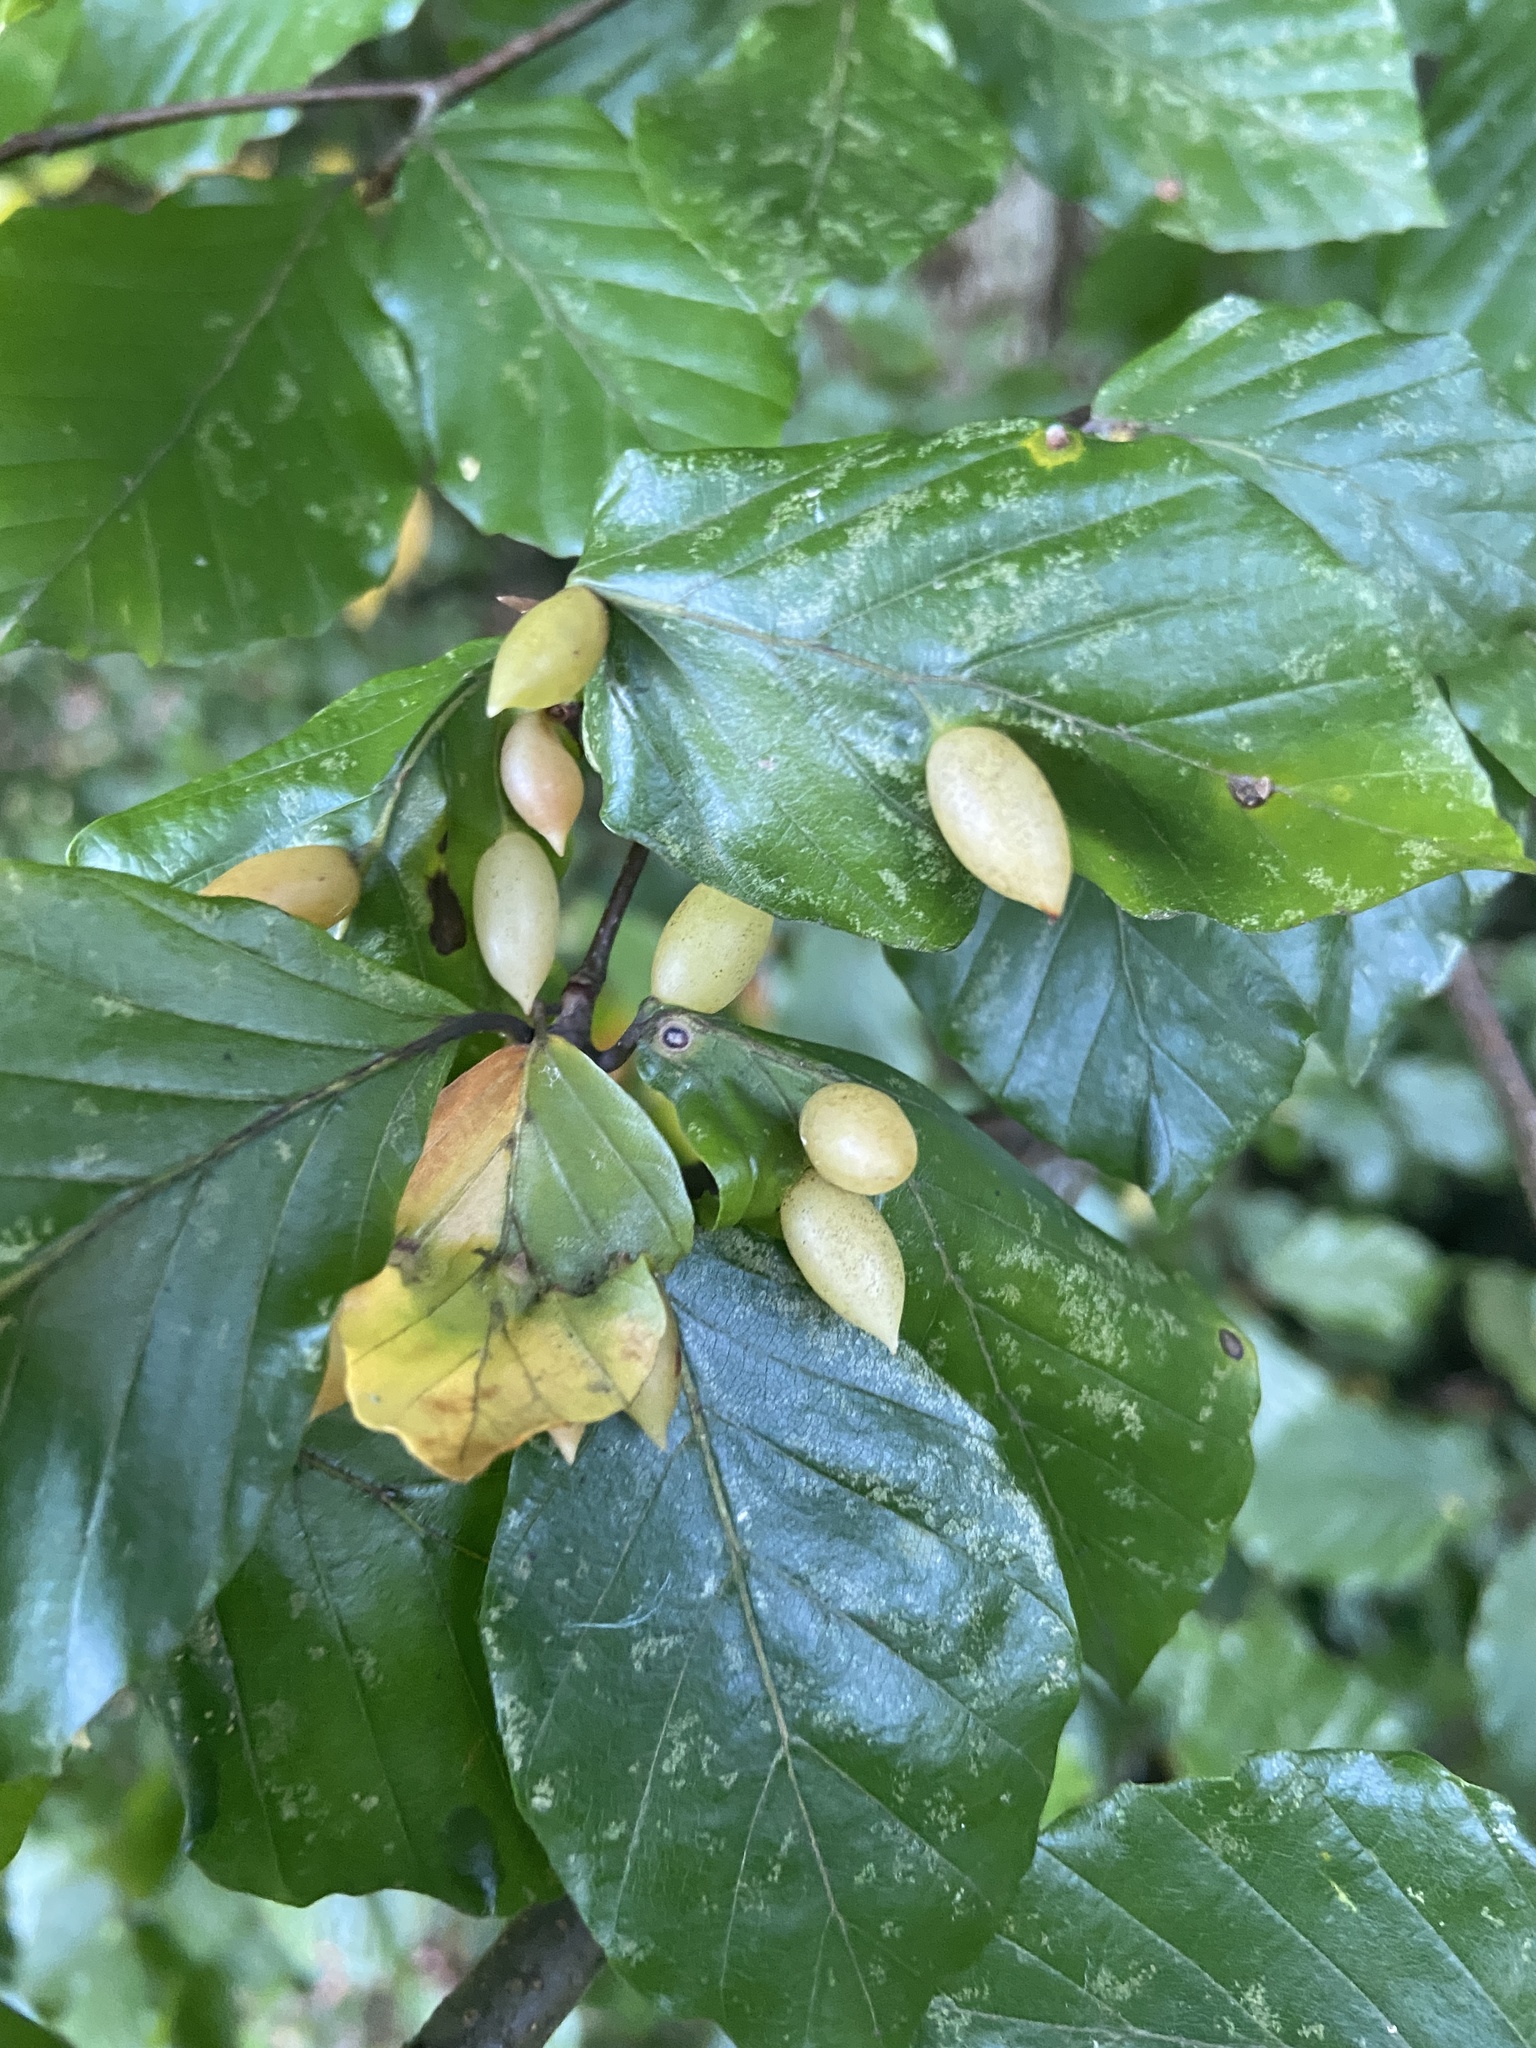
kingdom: Animalia
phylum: Arthropoda
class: Insecta
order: Diptera
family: Cecidomyiidae
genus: Mikiola
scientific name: Mikiola fagi
